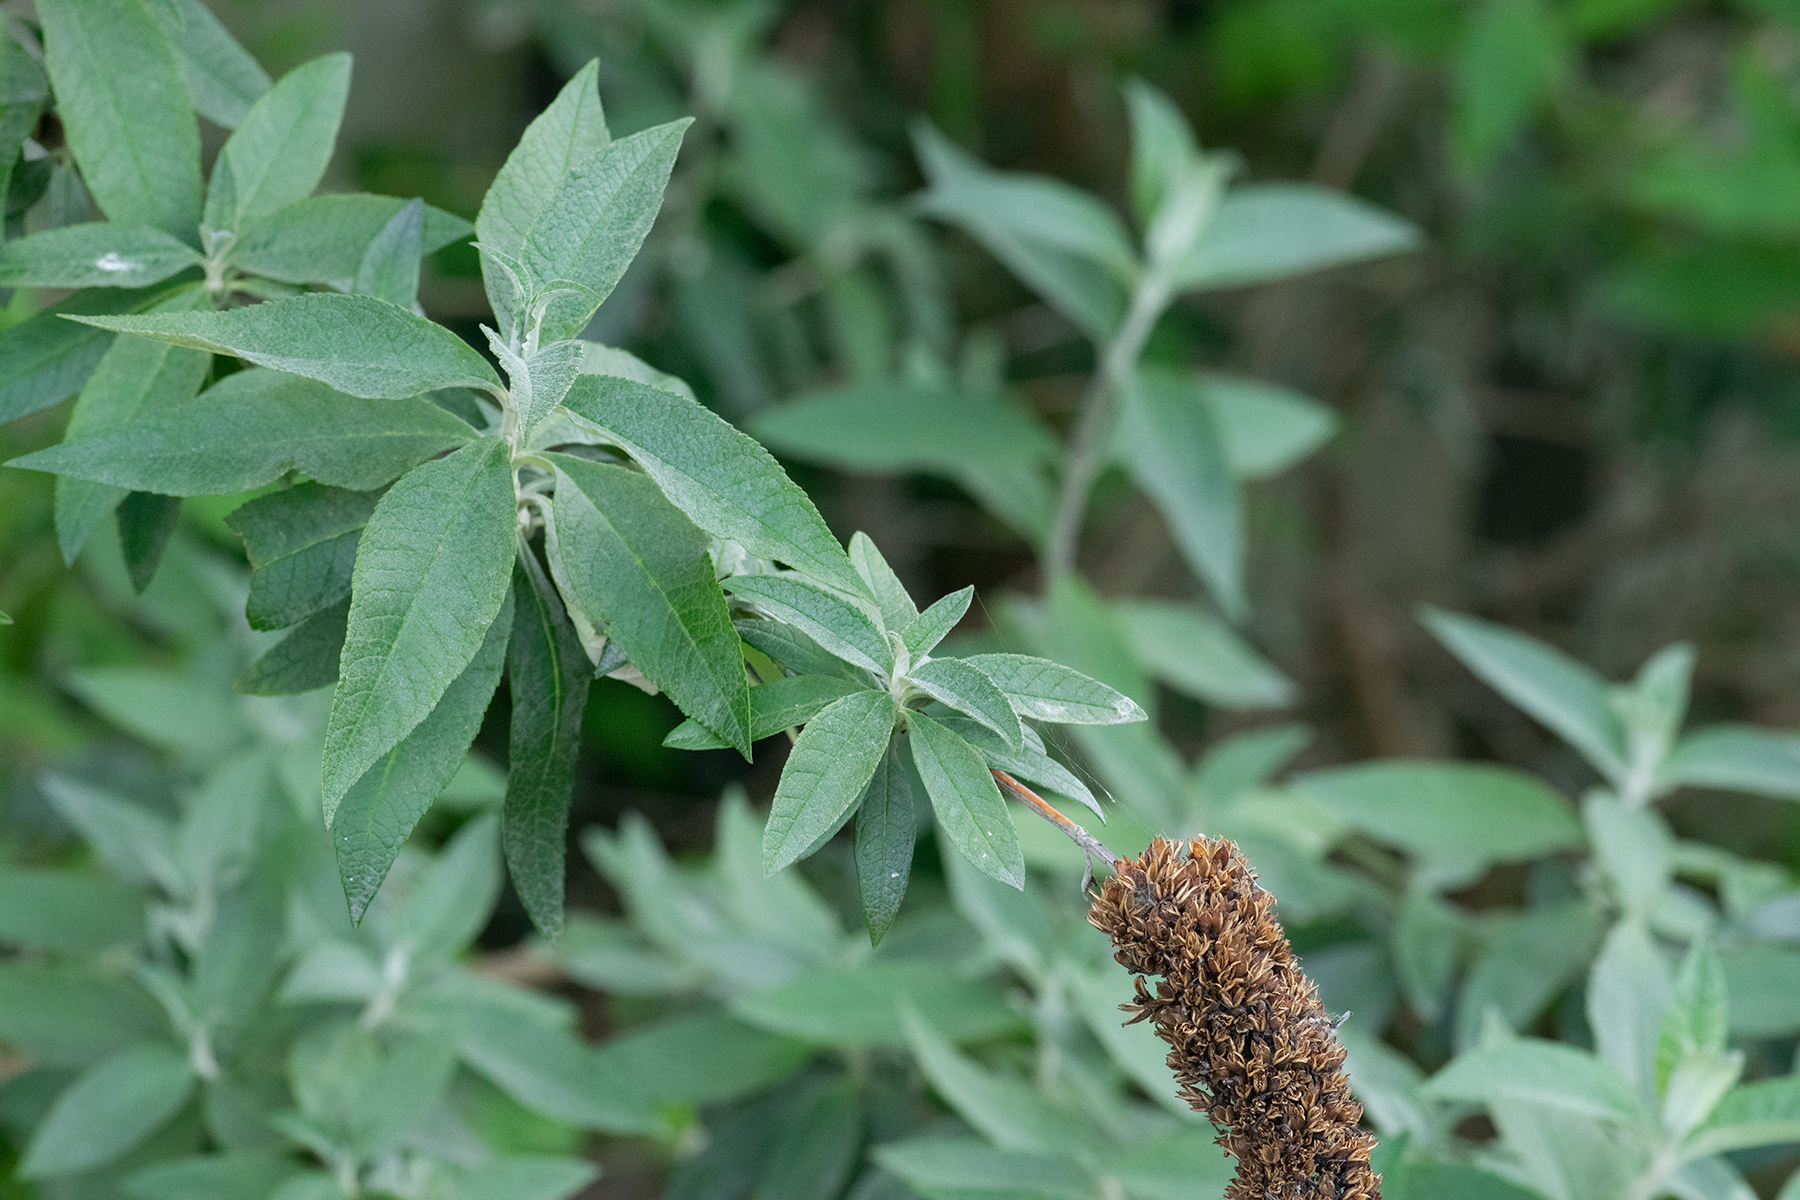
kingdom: Plantae
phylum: Tracheophyta
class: Magnoliopsida
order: Lamiales
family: Scrophulariaceae
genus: Buddleja
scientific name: Buddleja davidii
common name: Butterfly-bush
